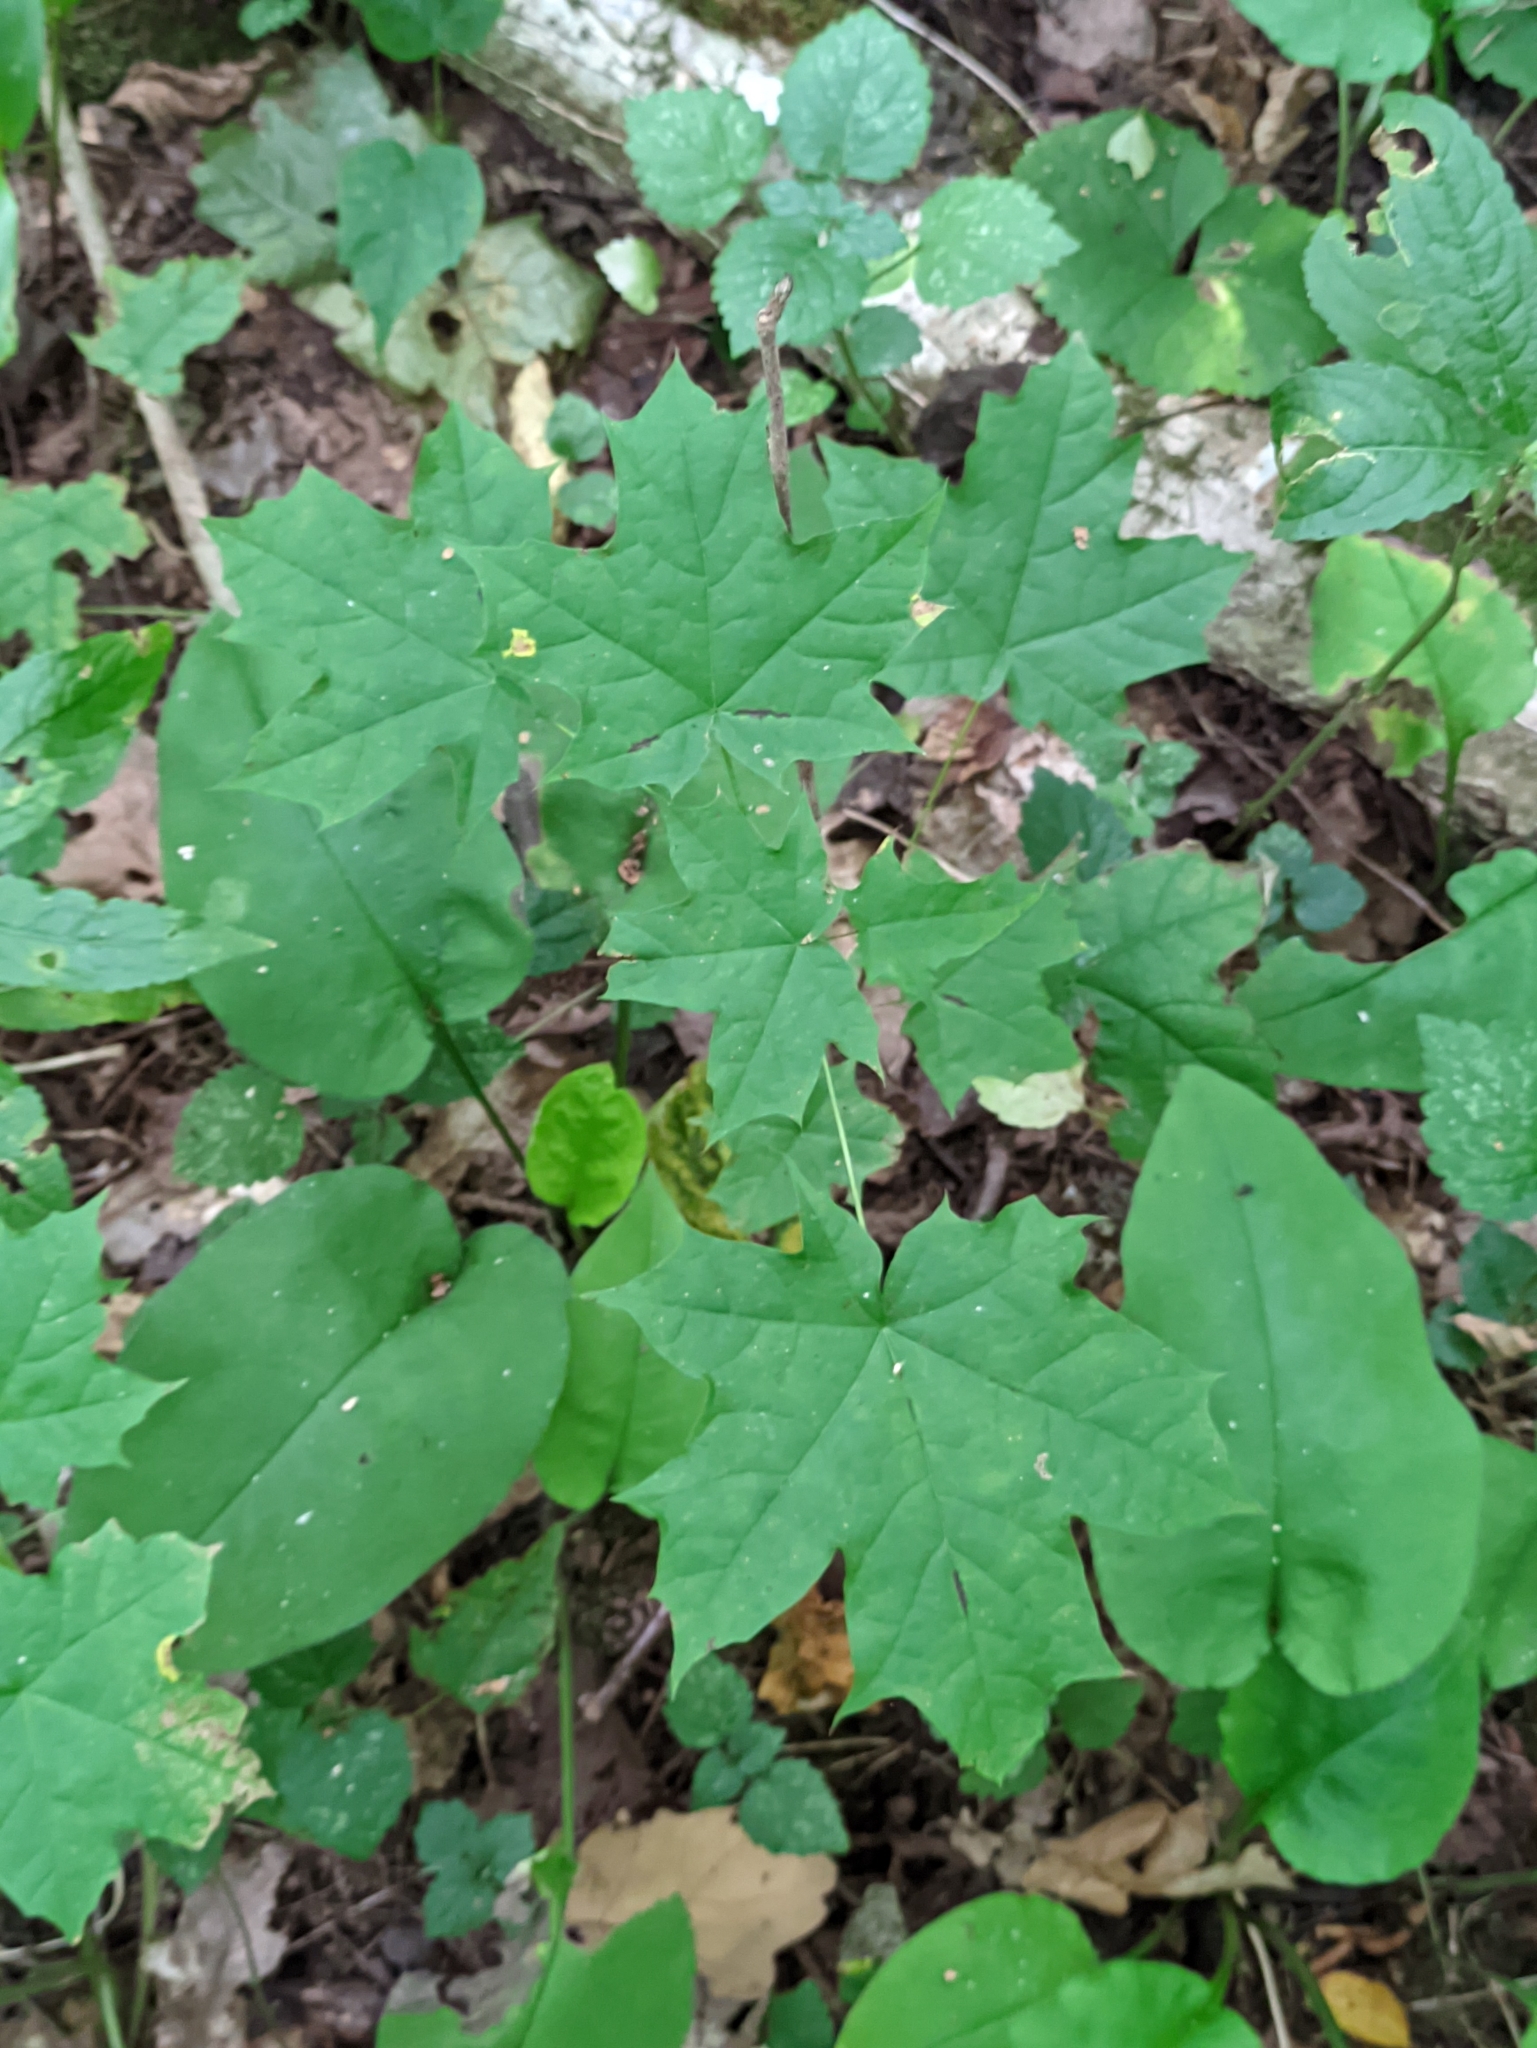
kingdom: Plantae
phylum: Tracheophyta
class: Magnoliopsida
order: Sapindales
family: Sapindaceae
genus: Acer
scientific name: Acer platanoides
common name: Norway maple
